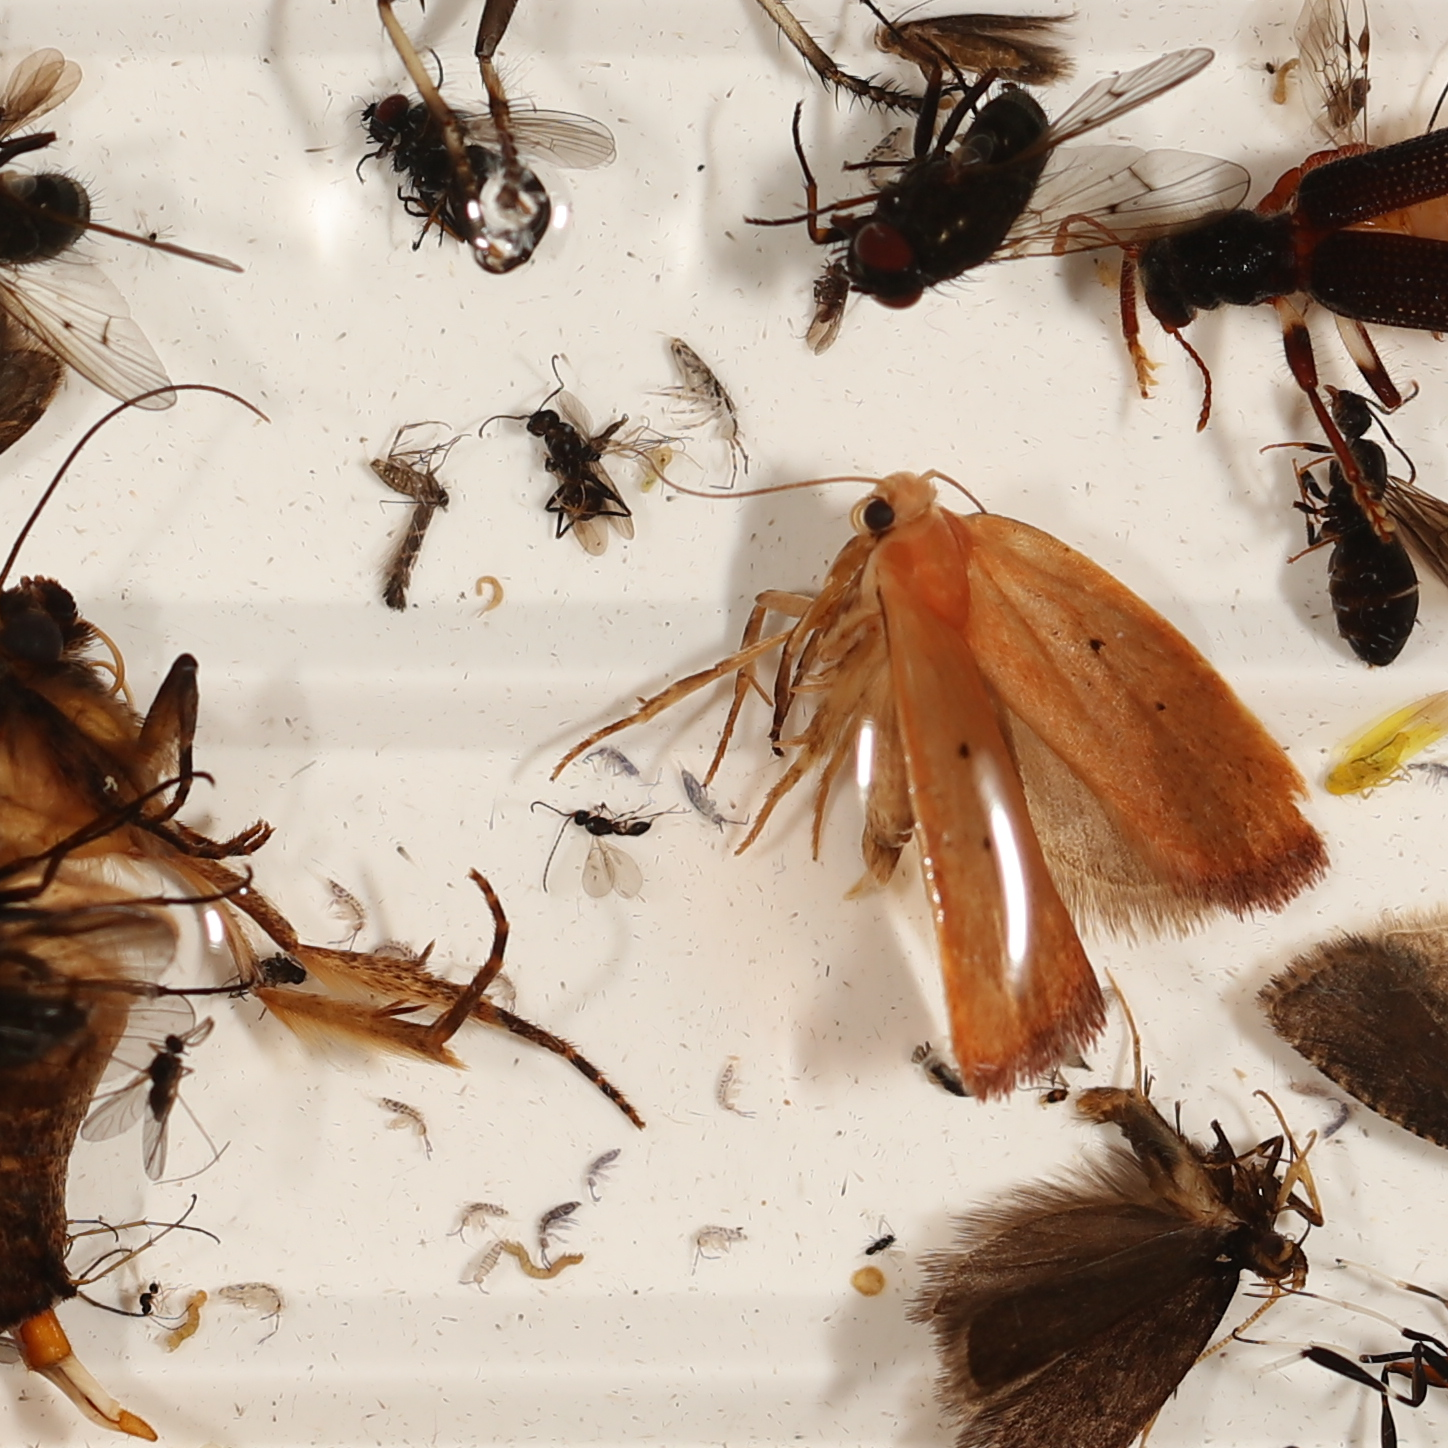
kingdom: Animalia
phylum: Arthropoda
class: Insecta
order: Lepidoptera
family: Oecophoridae
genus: Ptyoptila
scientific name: Ptyoptila matutinella
